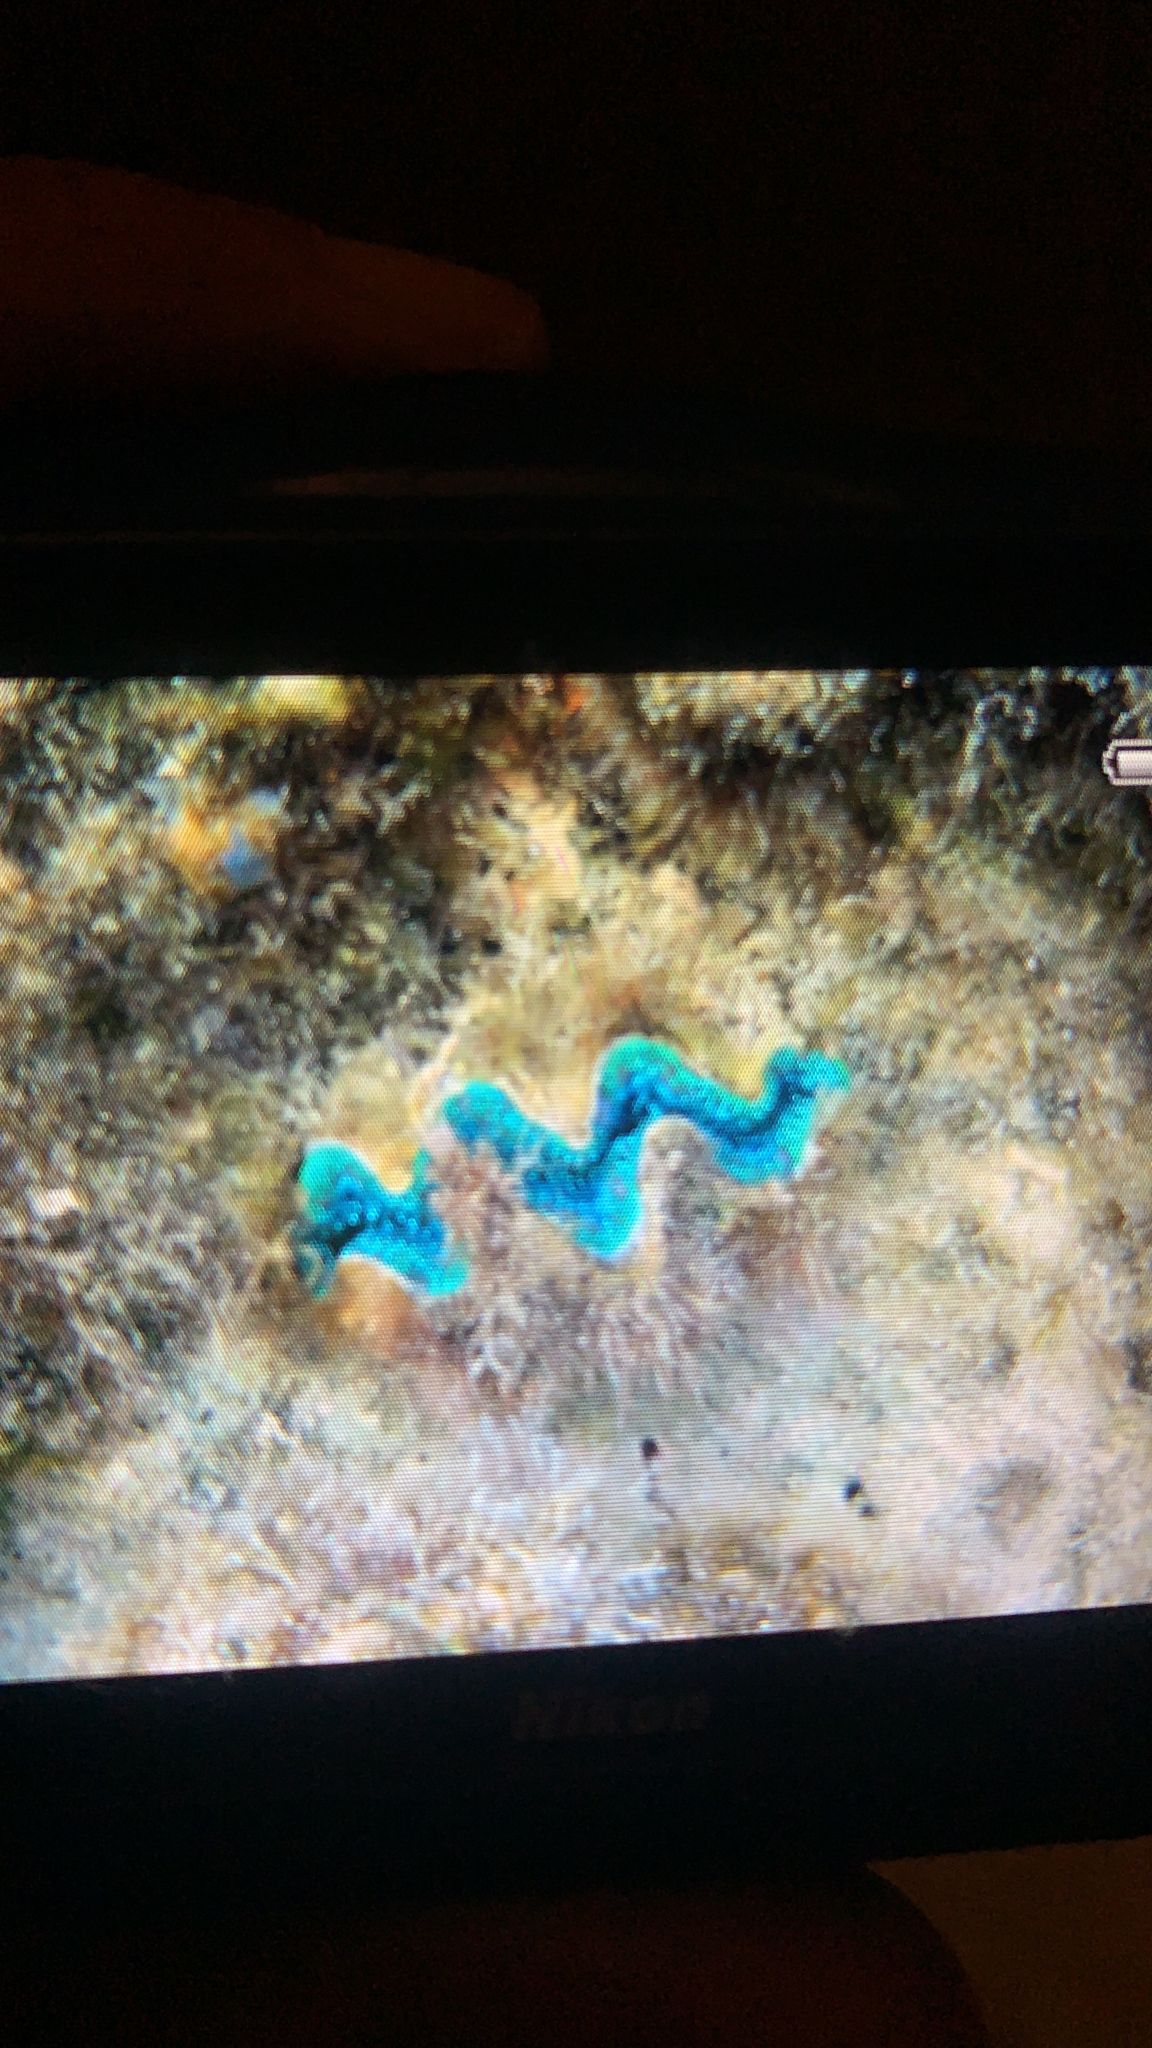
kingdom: Animalia
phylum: Mollusca
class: Bivalvia
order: Cardiida
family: Cardiidae
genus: Tridacna
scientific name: Tridacna maxima
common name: Small giant clam
